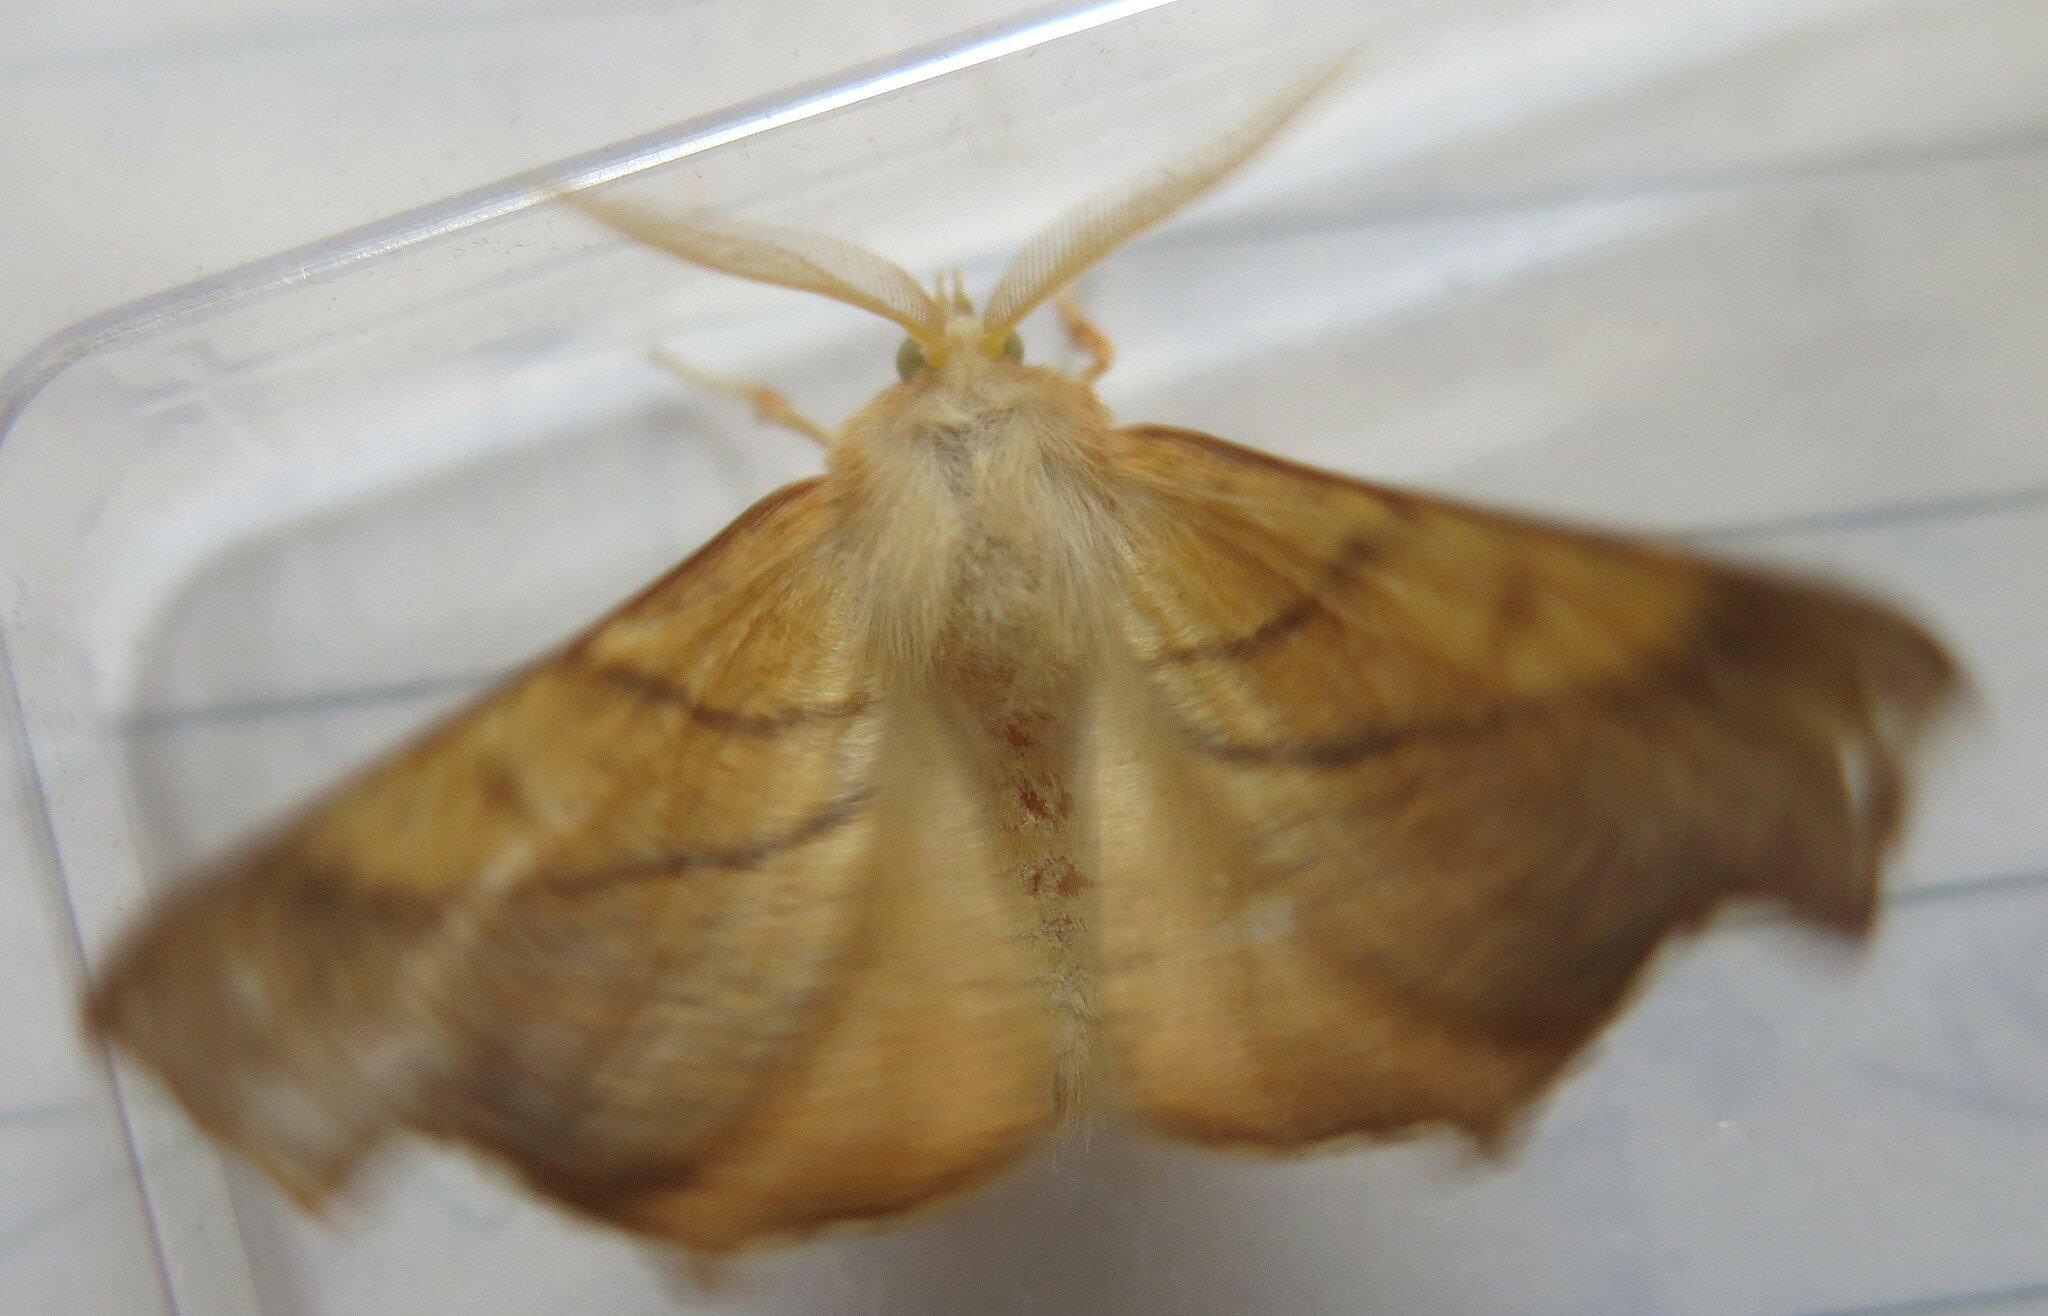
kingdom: Animalia
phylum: Arthropoda
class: Insecta
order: Lepidoptera
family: Geometridae
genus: Ennomos
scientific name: Ennomos fuscantaria
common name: Dusky thorn
